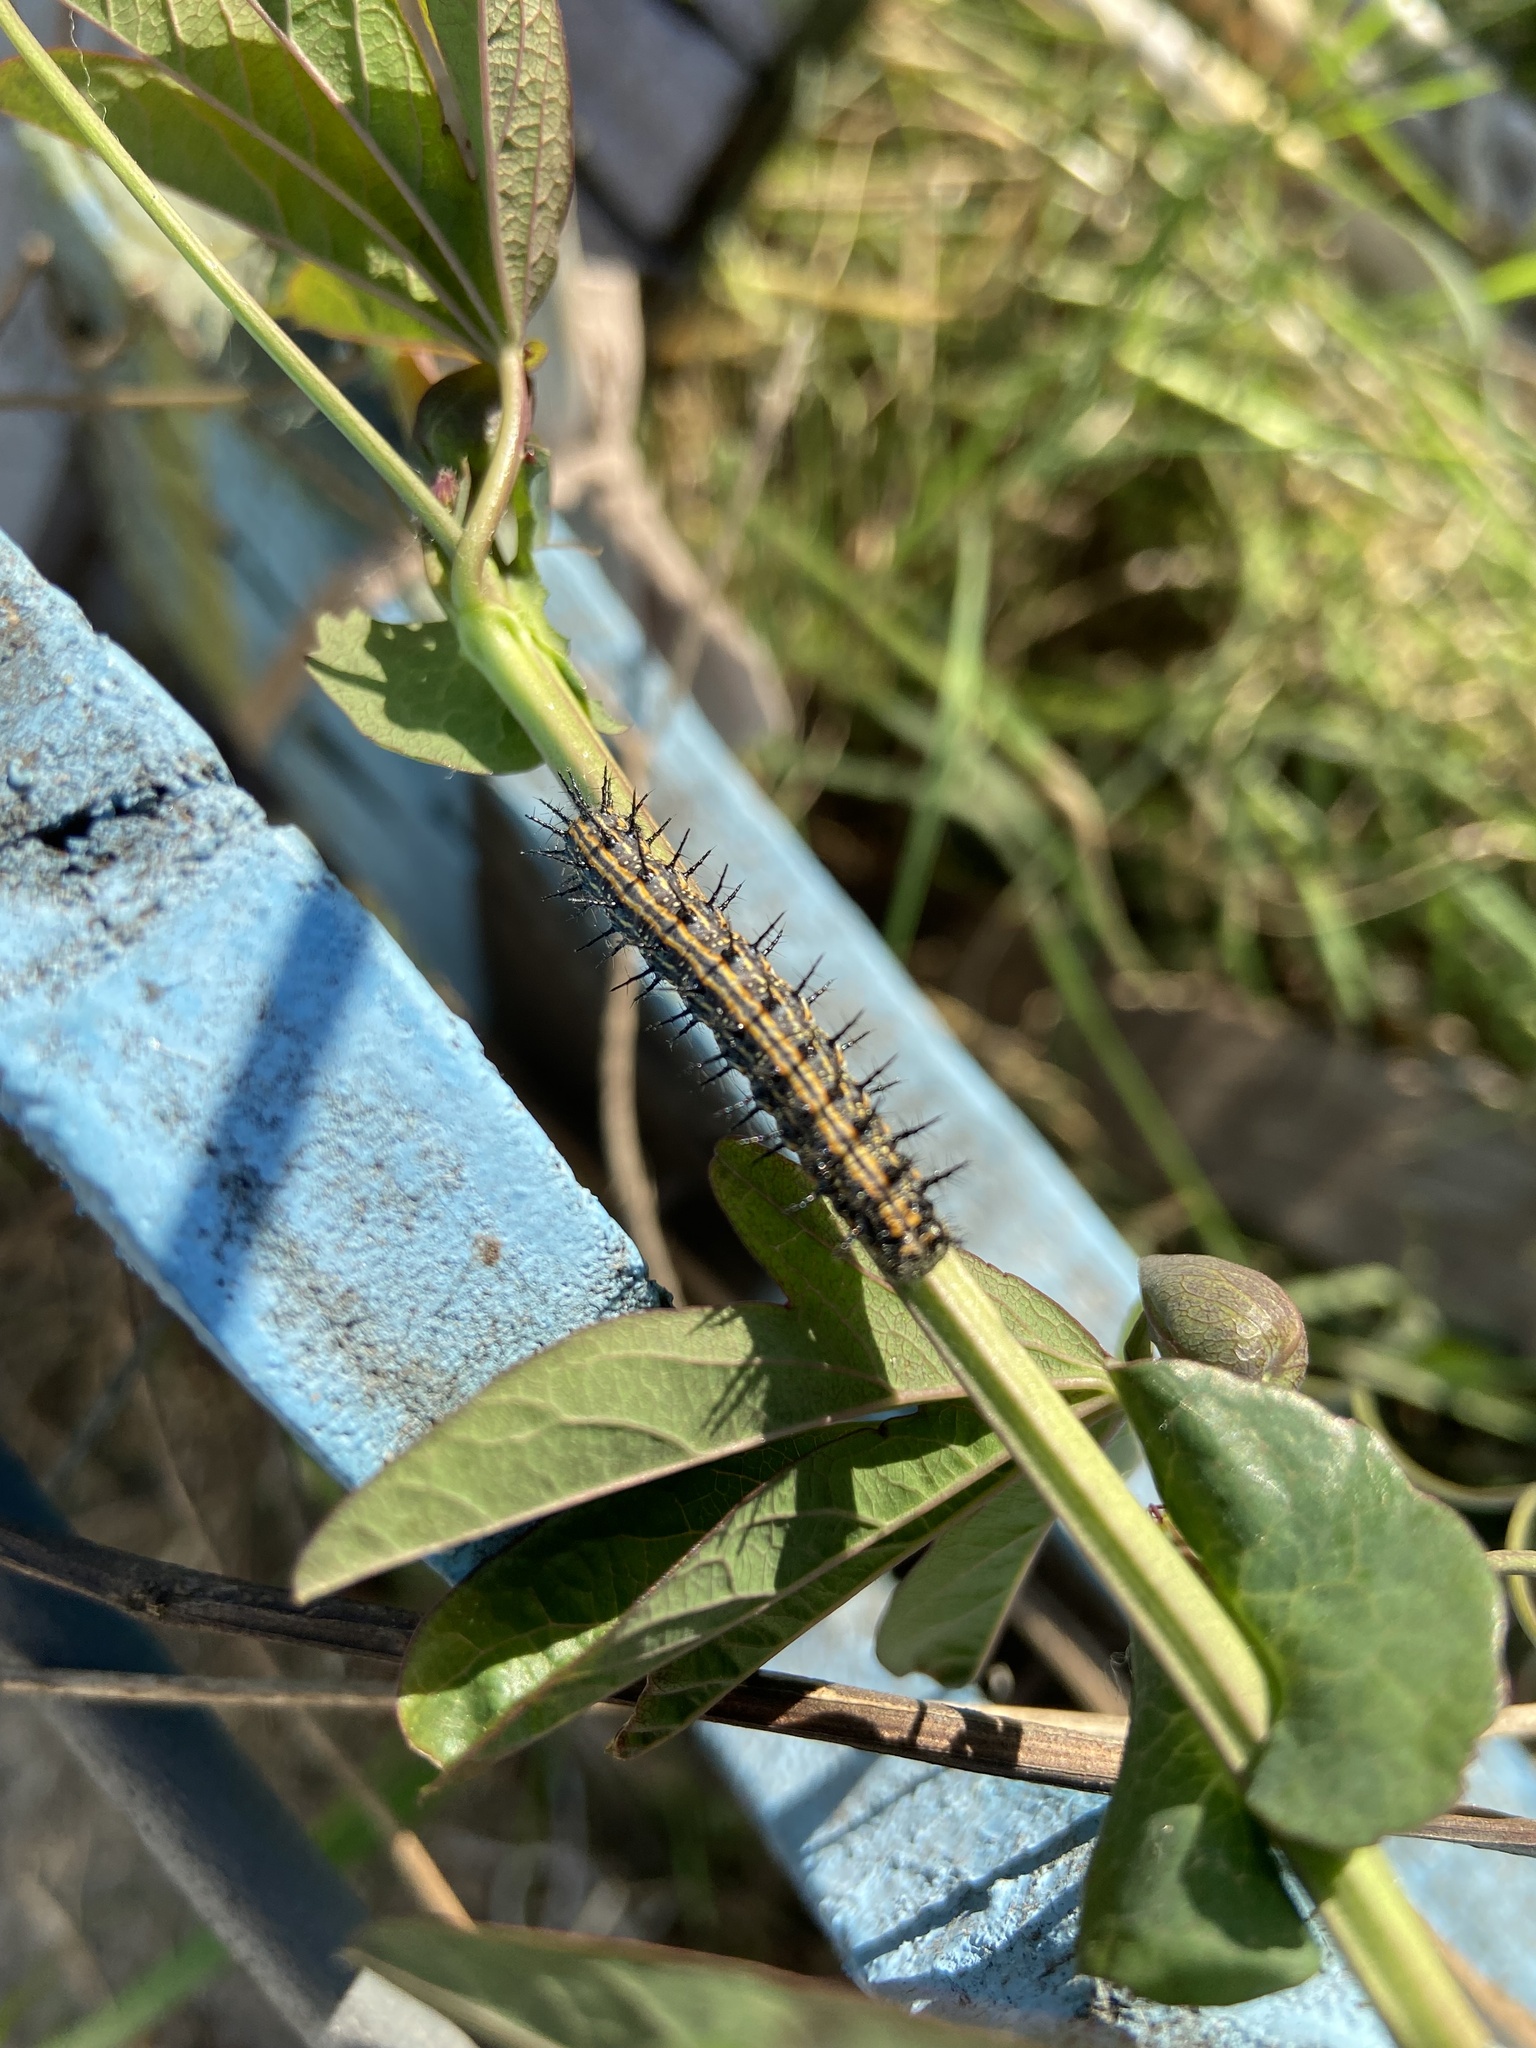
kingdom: Animalia
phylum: Arthropoda
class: Insecta
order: Lepidoptera
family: Nymphalidae
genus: Dione
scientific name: Dione vanillae
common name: Gulf fritillary
